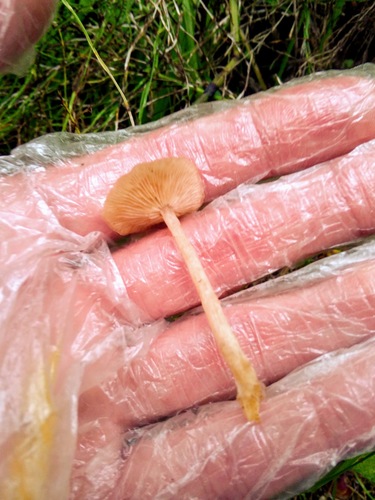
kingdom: Fungi
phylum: Basidiomycota
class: Agaricomycetes
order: Agaricales
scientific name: Agaricales
